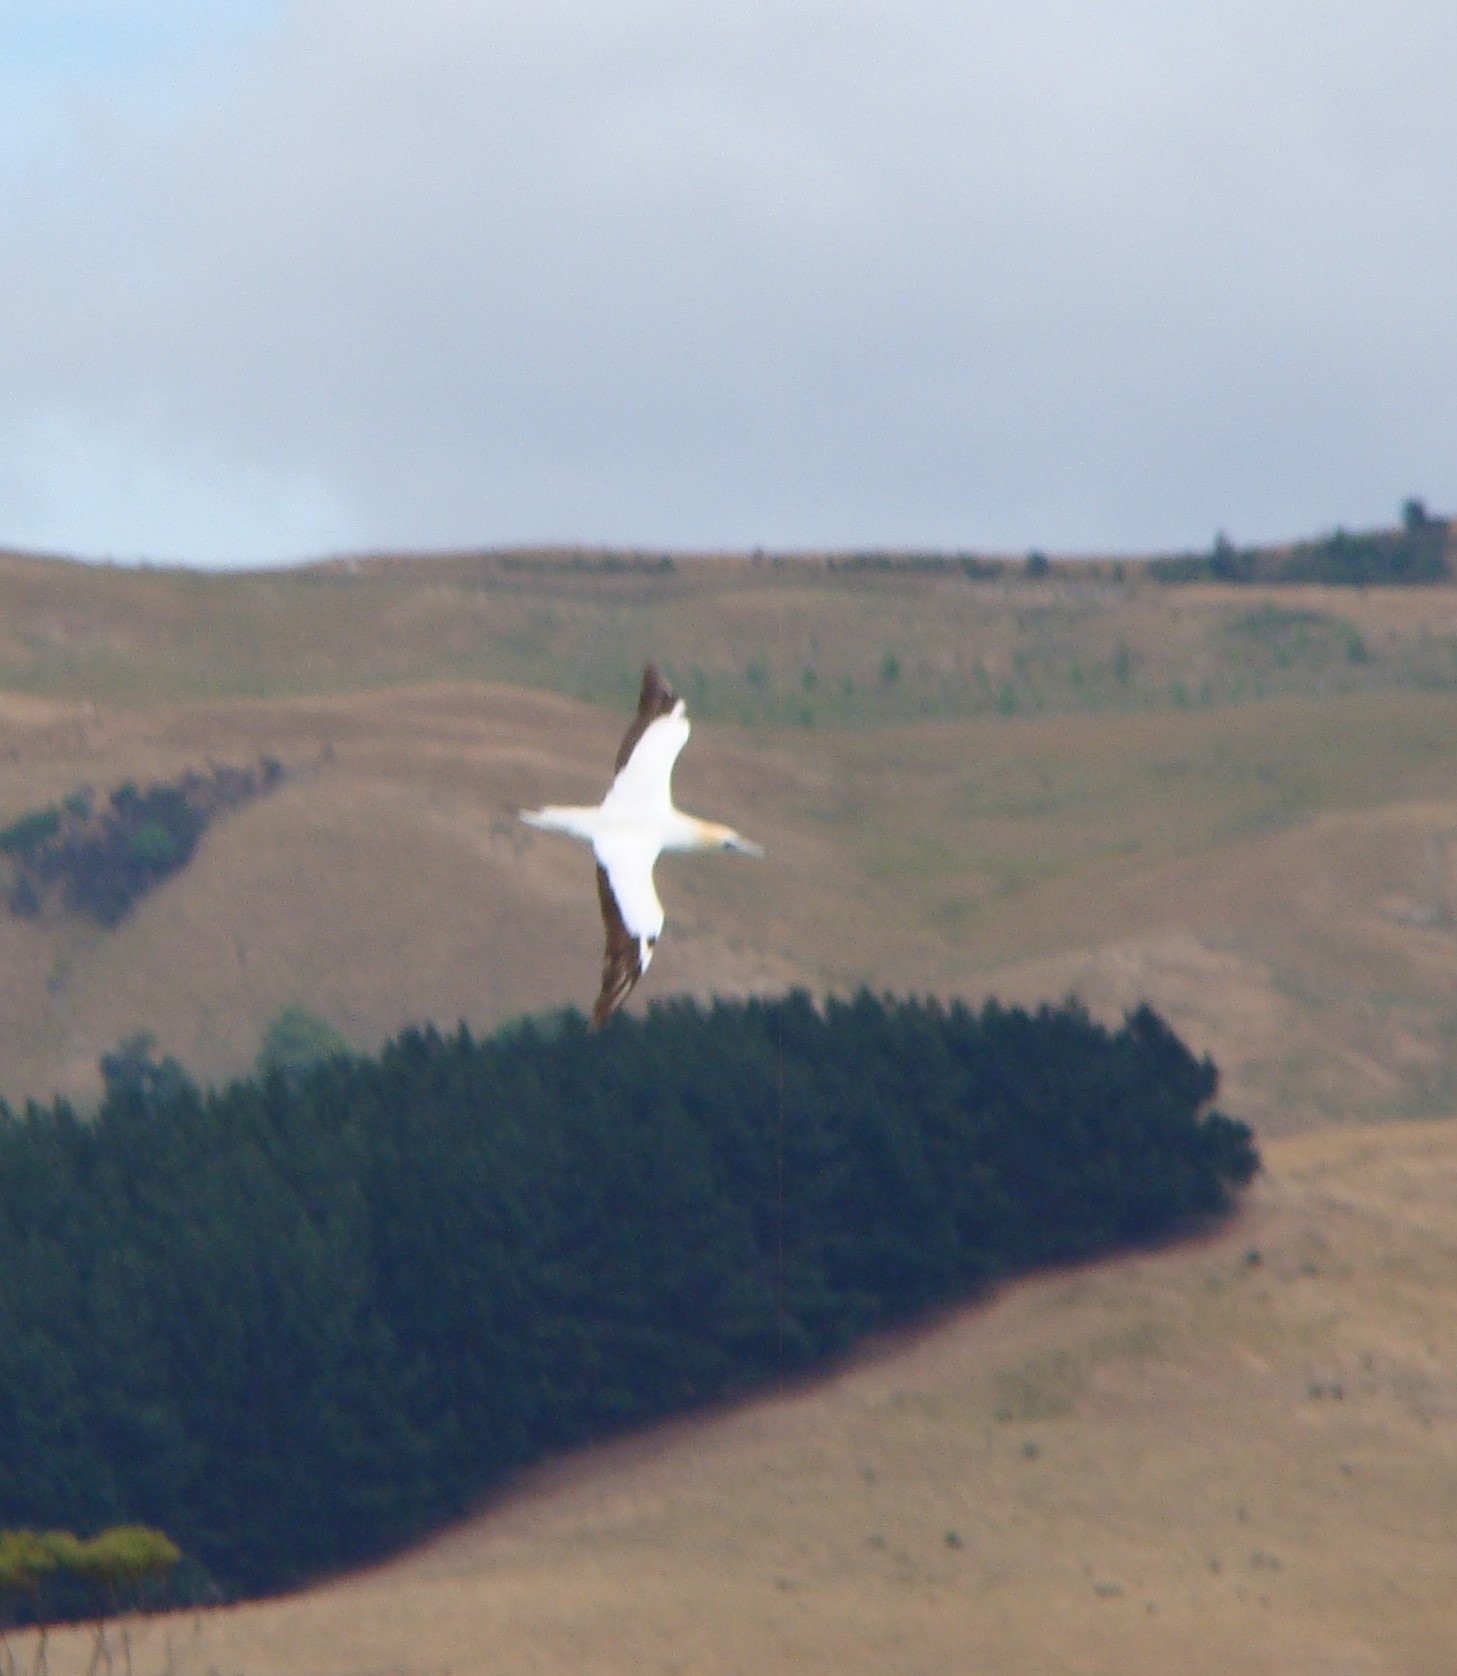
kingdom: Animalia
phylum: Chordata
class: Aves
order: Suliformes
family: Sulidae
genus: Morus
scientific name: Morus serrator
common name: Australasian gannet
